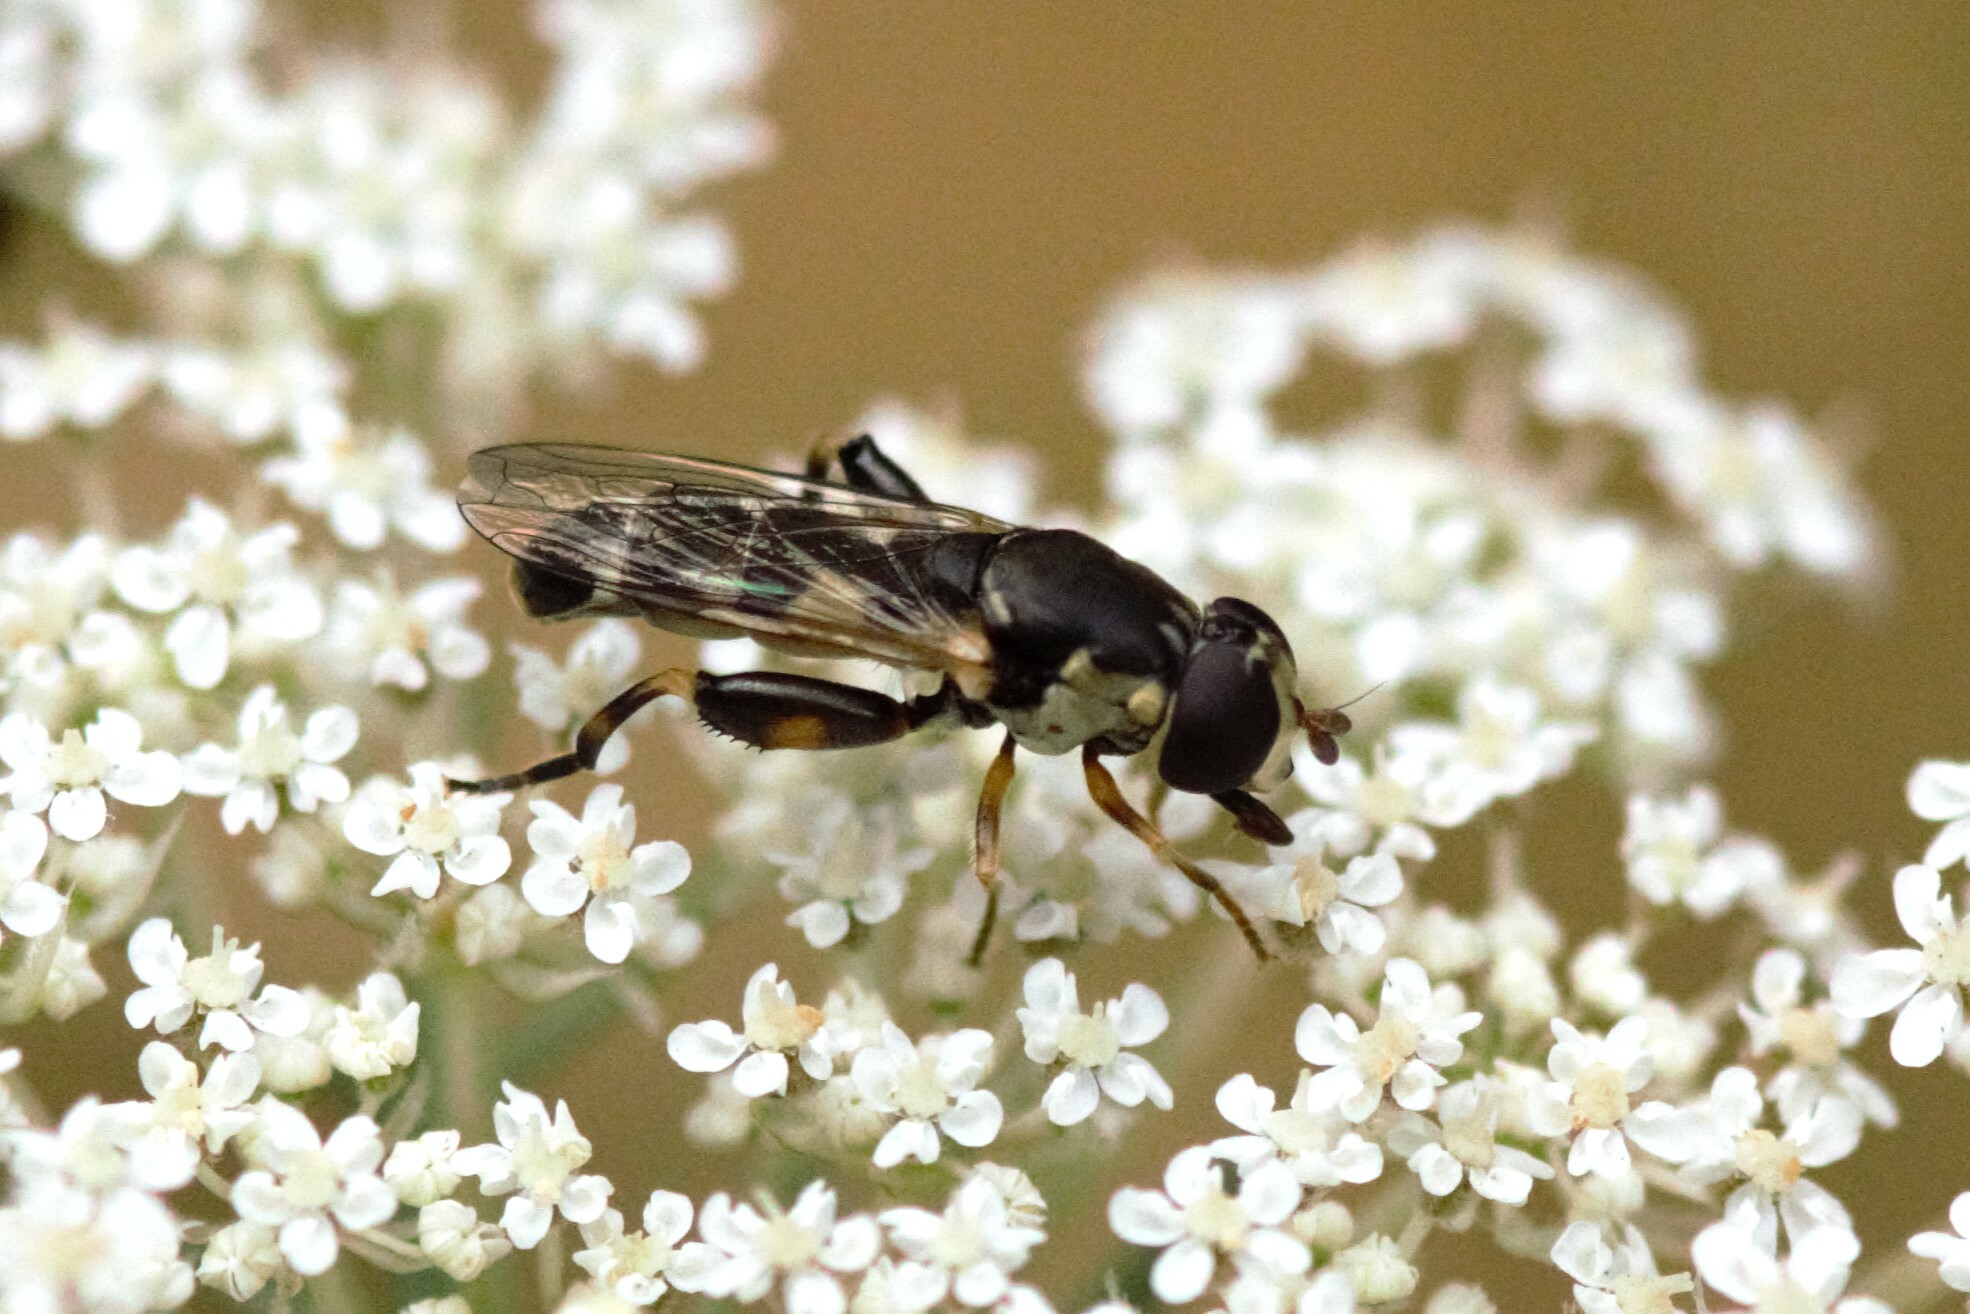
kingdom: Animalia
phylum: Arthropoda
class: Insecta
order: Diptera
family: Syrphidae
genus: Syritta
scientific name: Syritta pipiens
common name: Hover fly
